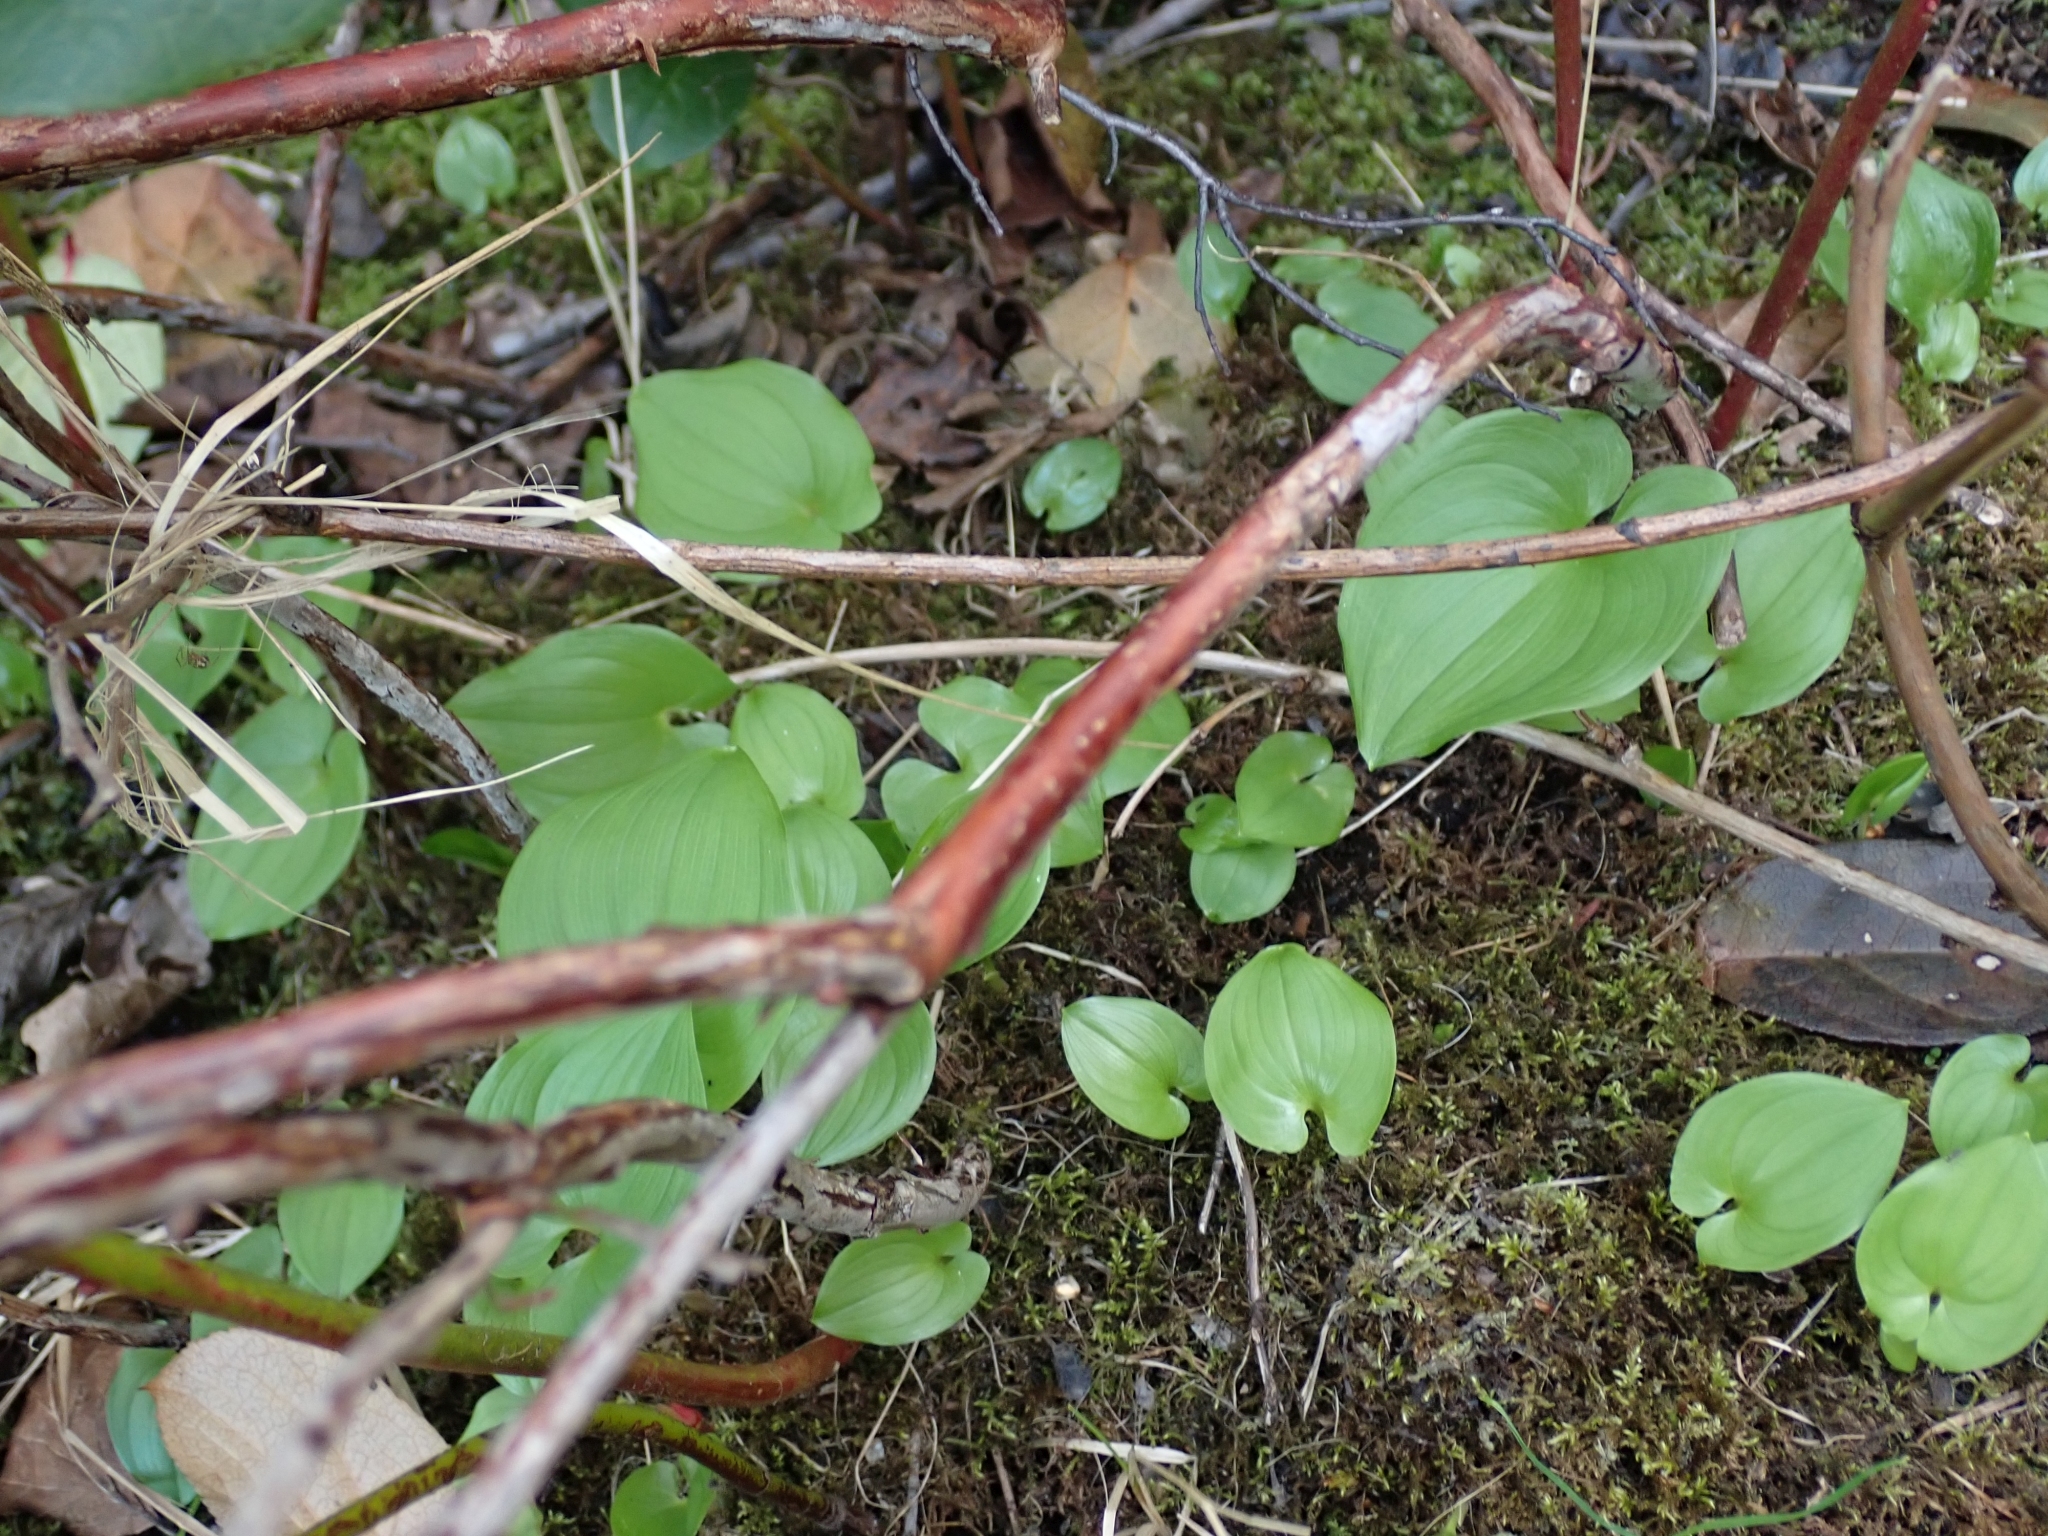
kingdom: Plantae
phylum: Tracheophyta
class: Liliopsida
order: Asparagales
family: Asparagaceae
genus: Maianthemum
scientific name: Maianthemum dilatatum
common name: False lily-of-the-valley
